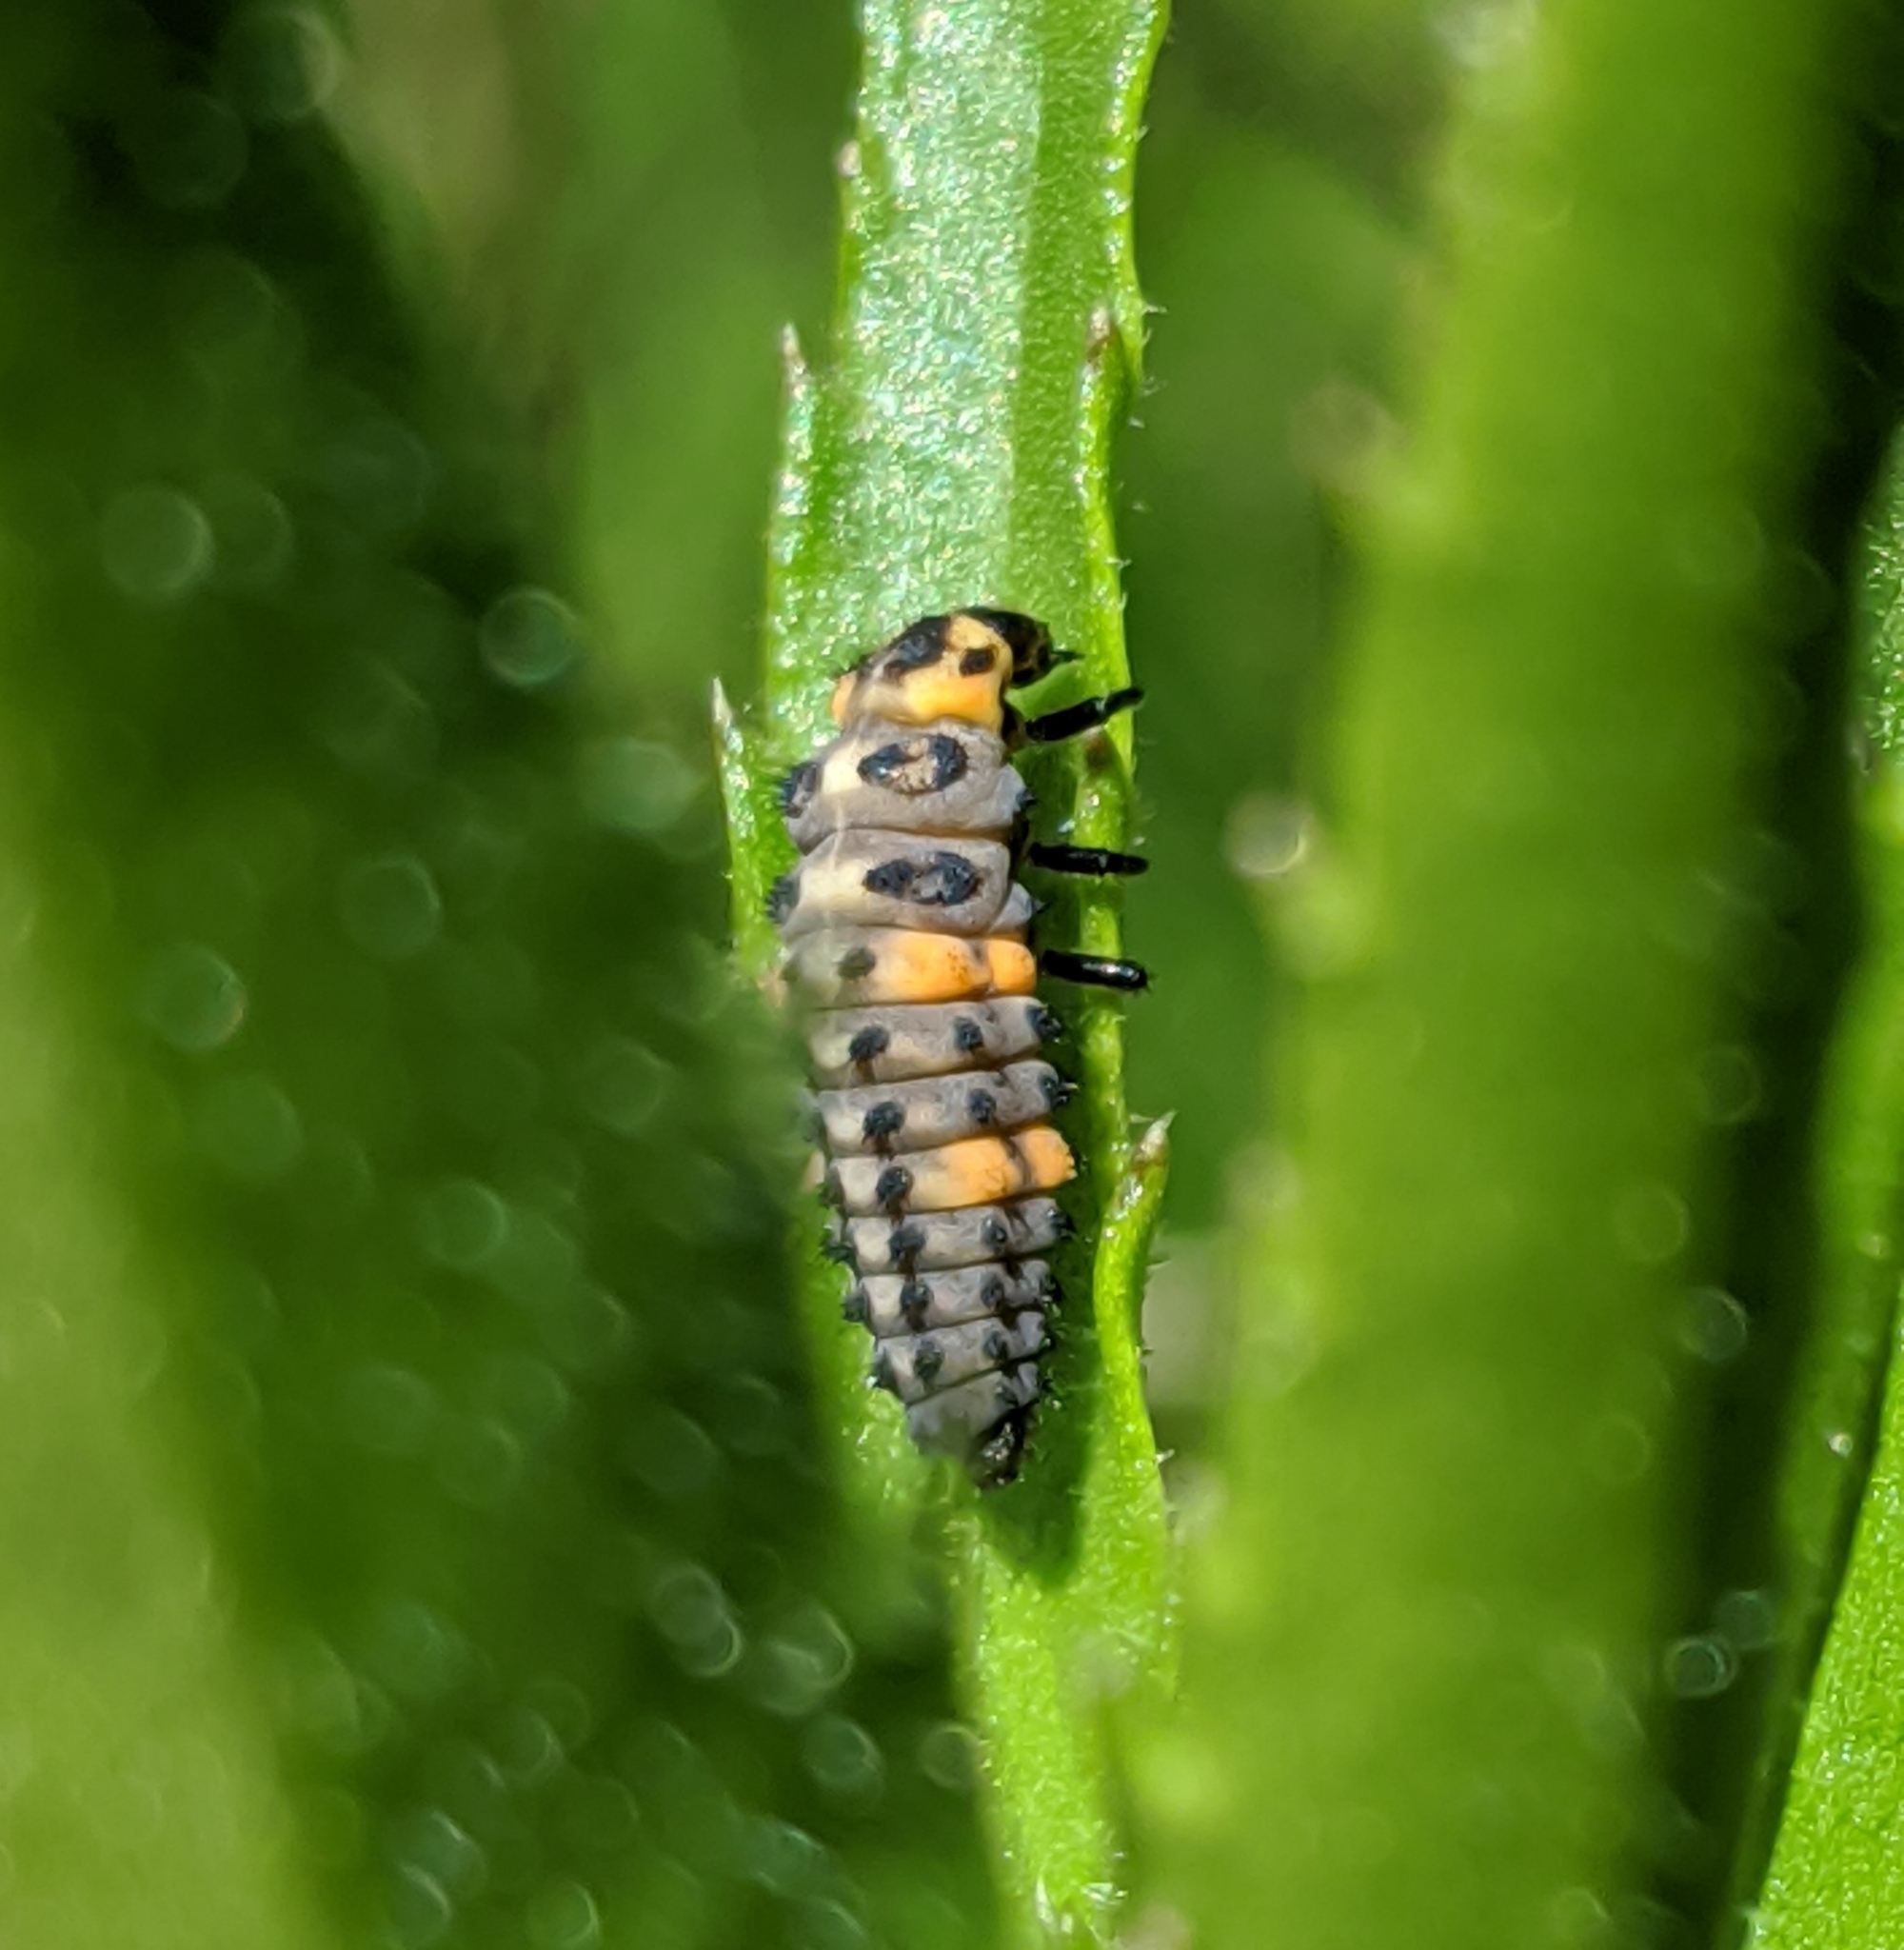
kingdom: Animalia
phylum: Arthropoda
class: Insecta
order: Coleoptera
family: Coccinellidae
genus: Coccinella
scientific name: Coccinella septempunctata
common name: Sevenspotted lady beetle
